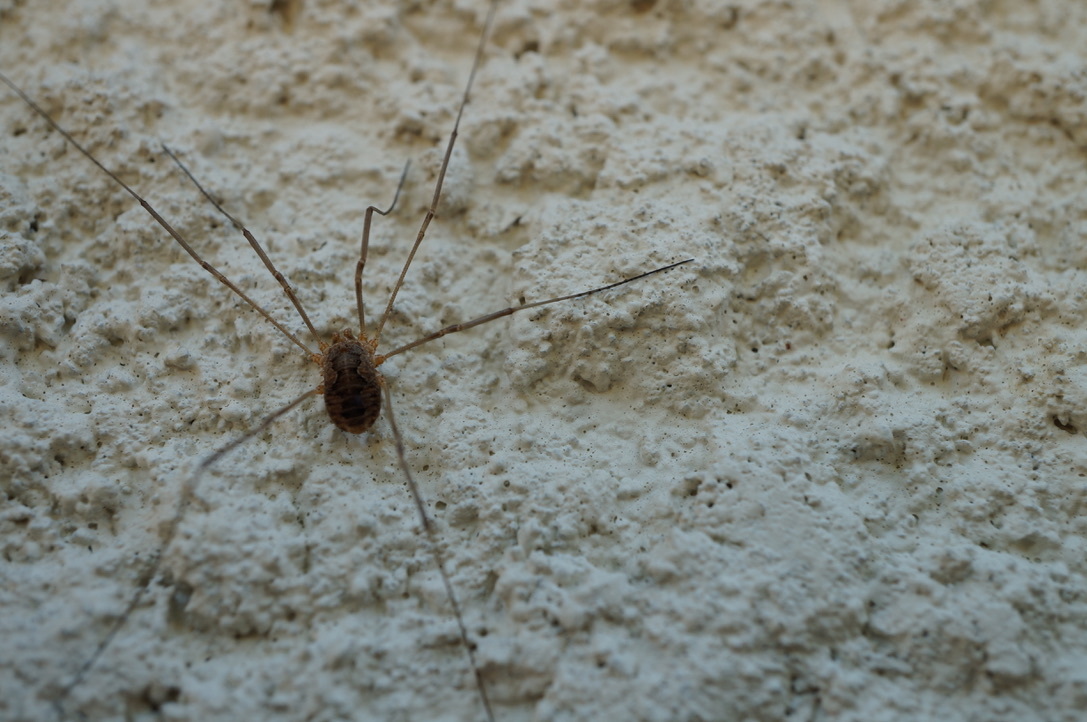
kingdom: Animalia
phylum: Arthropoda
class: Arachnida
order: Opiliones
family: Phalangiidae
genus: Phalangium
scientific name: Phalangium opilio
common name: Daddy longleg
